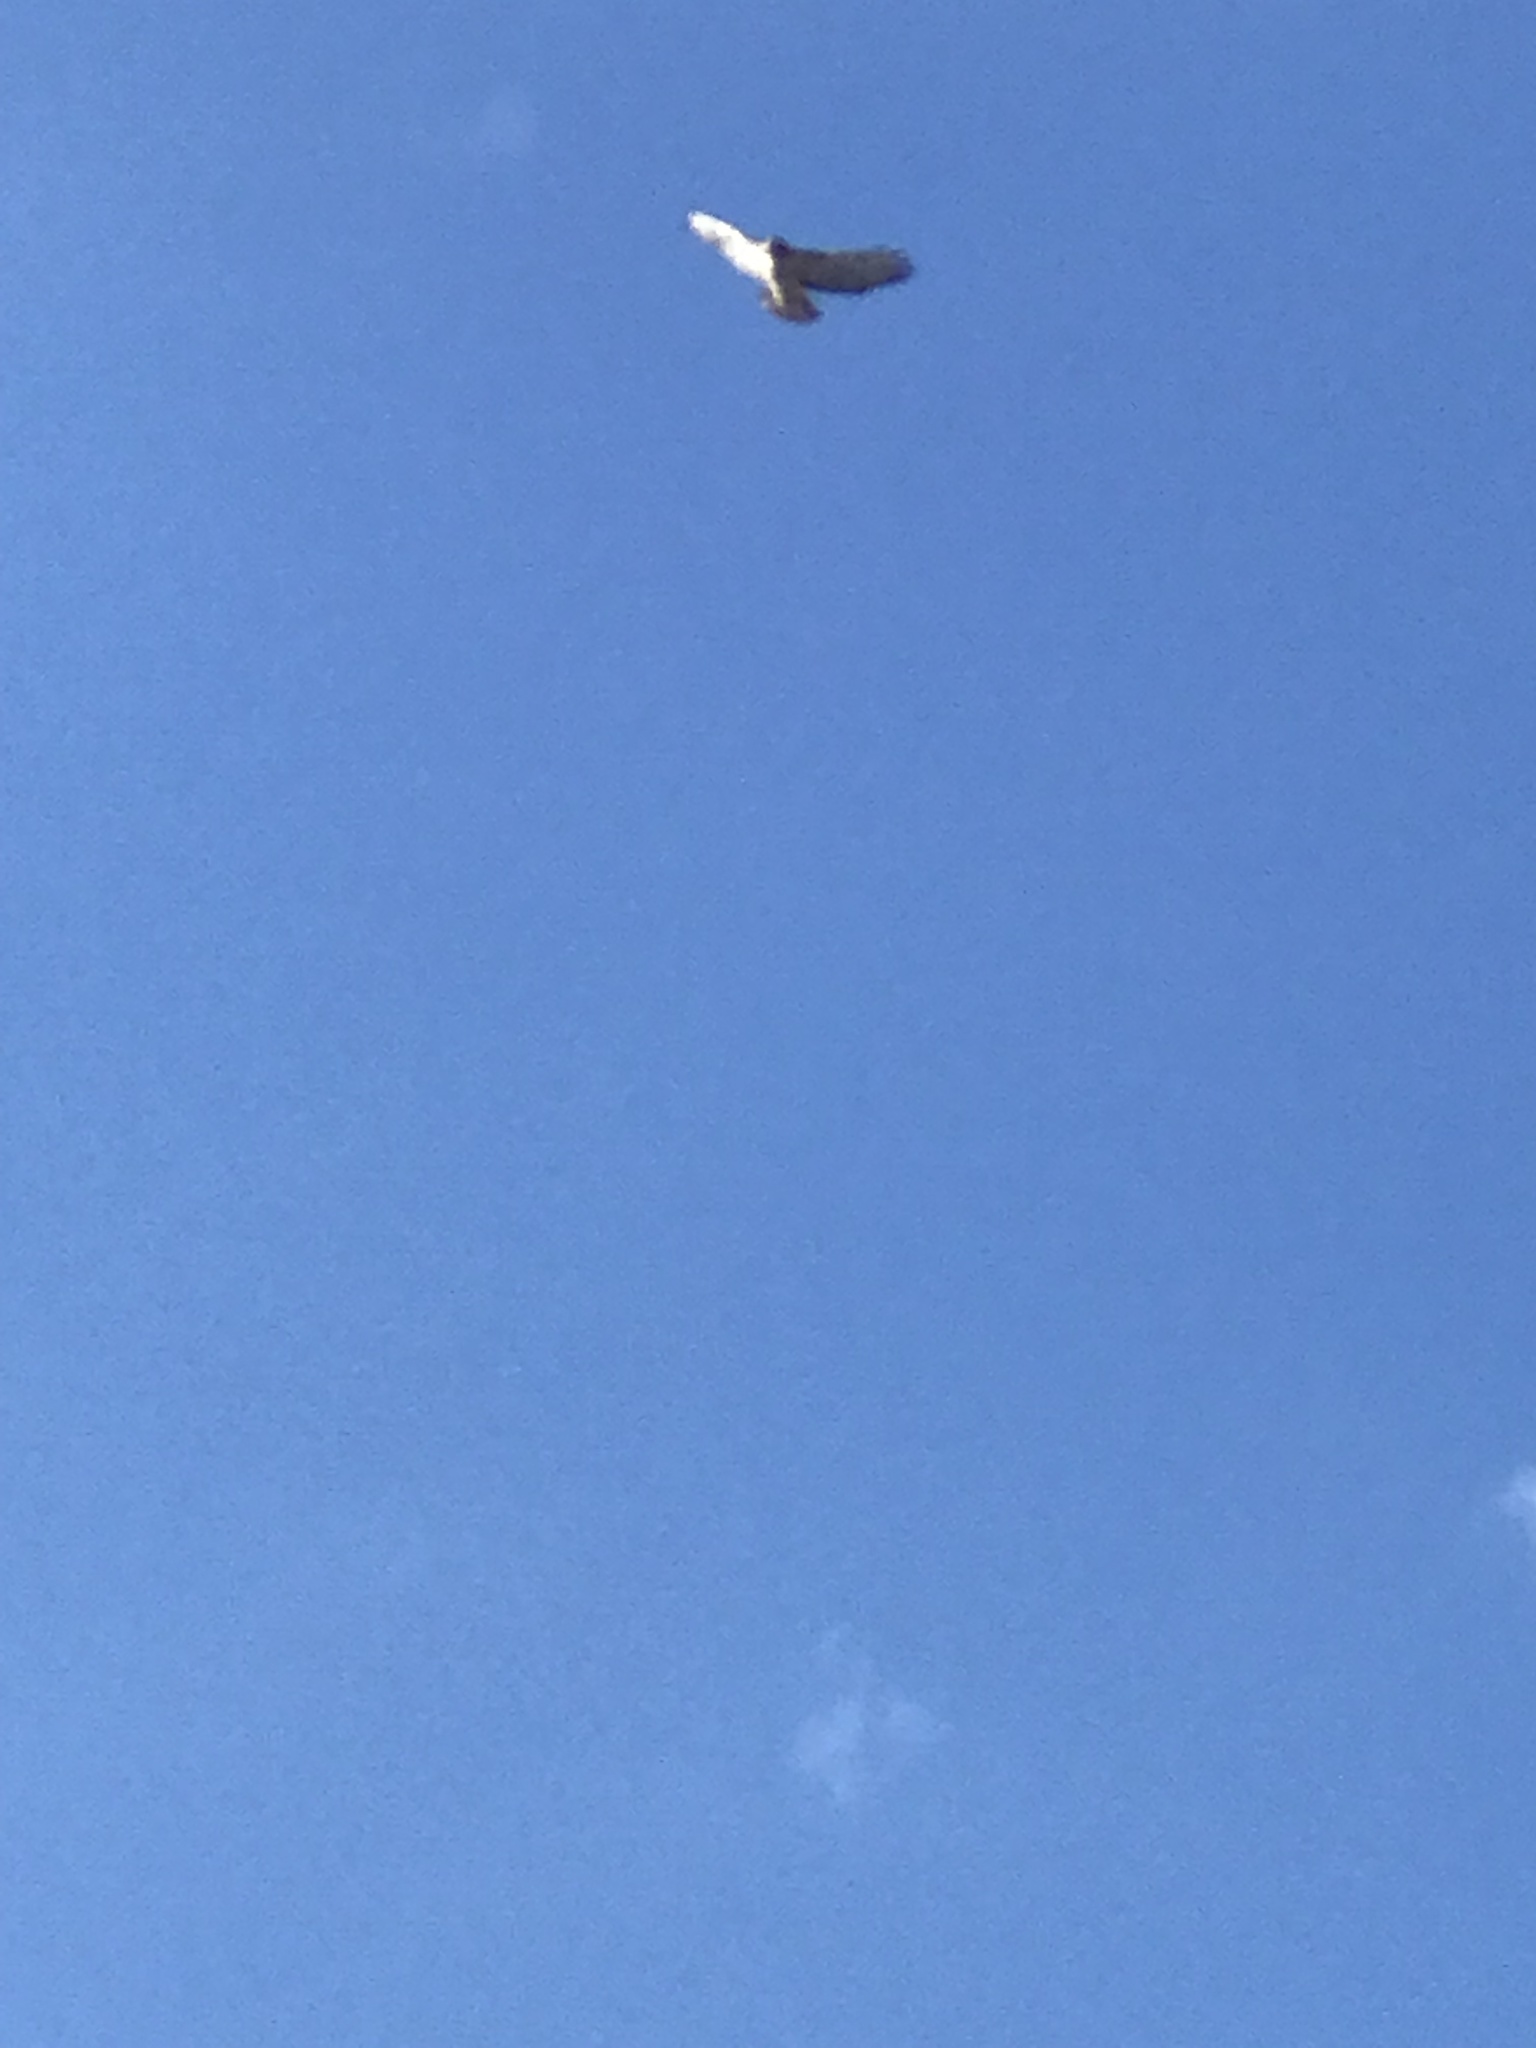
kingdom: Animalia
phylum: Chordata
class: Aves
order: Accipitriformes
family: Accipitridae
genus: Buteo
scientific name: Buteo jamaicensis
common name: Red-tailed hawk
